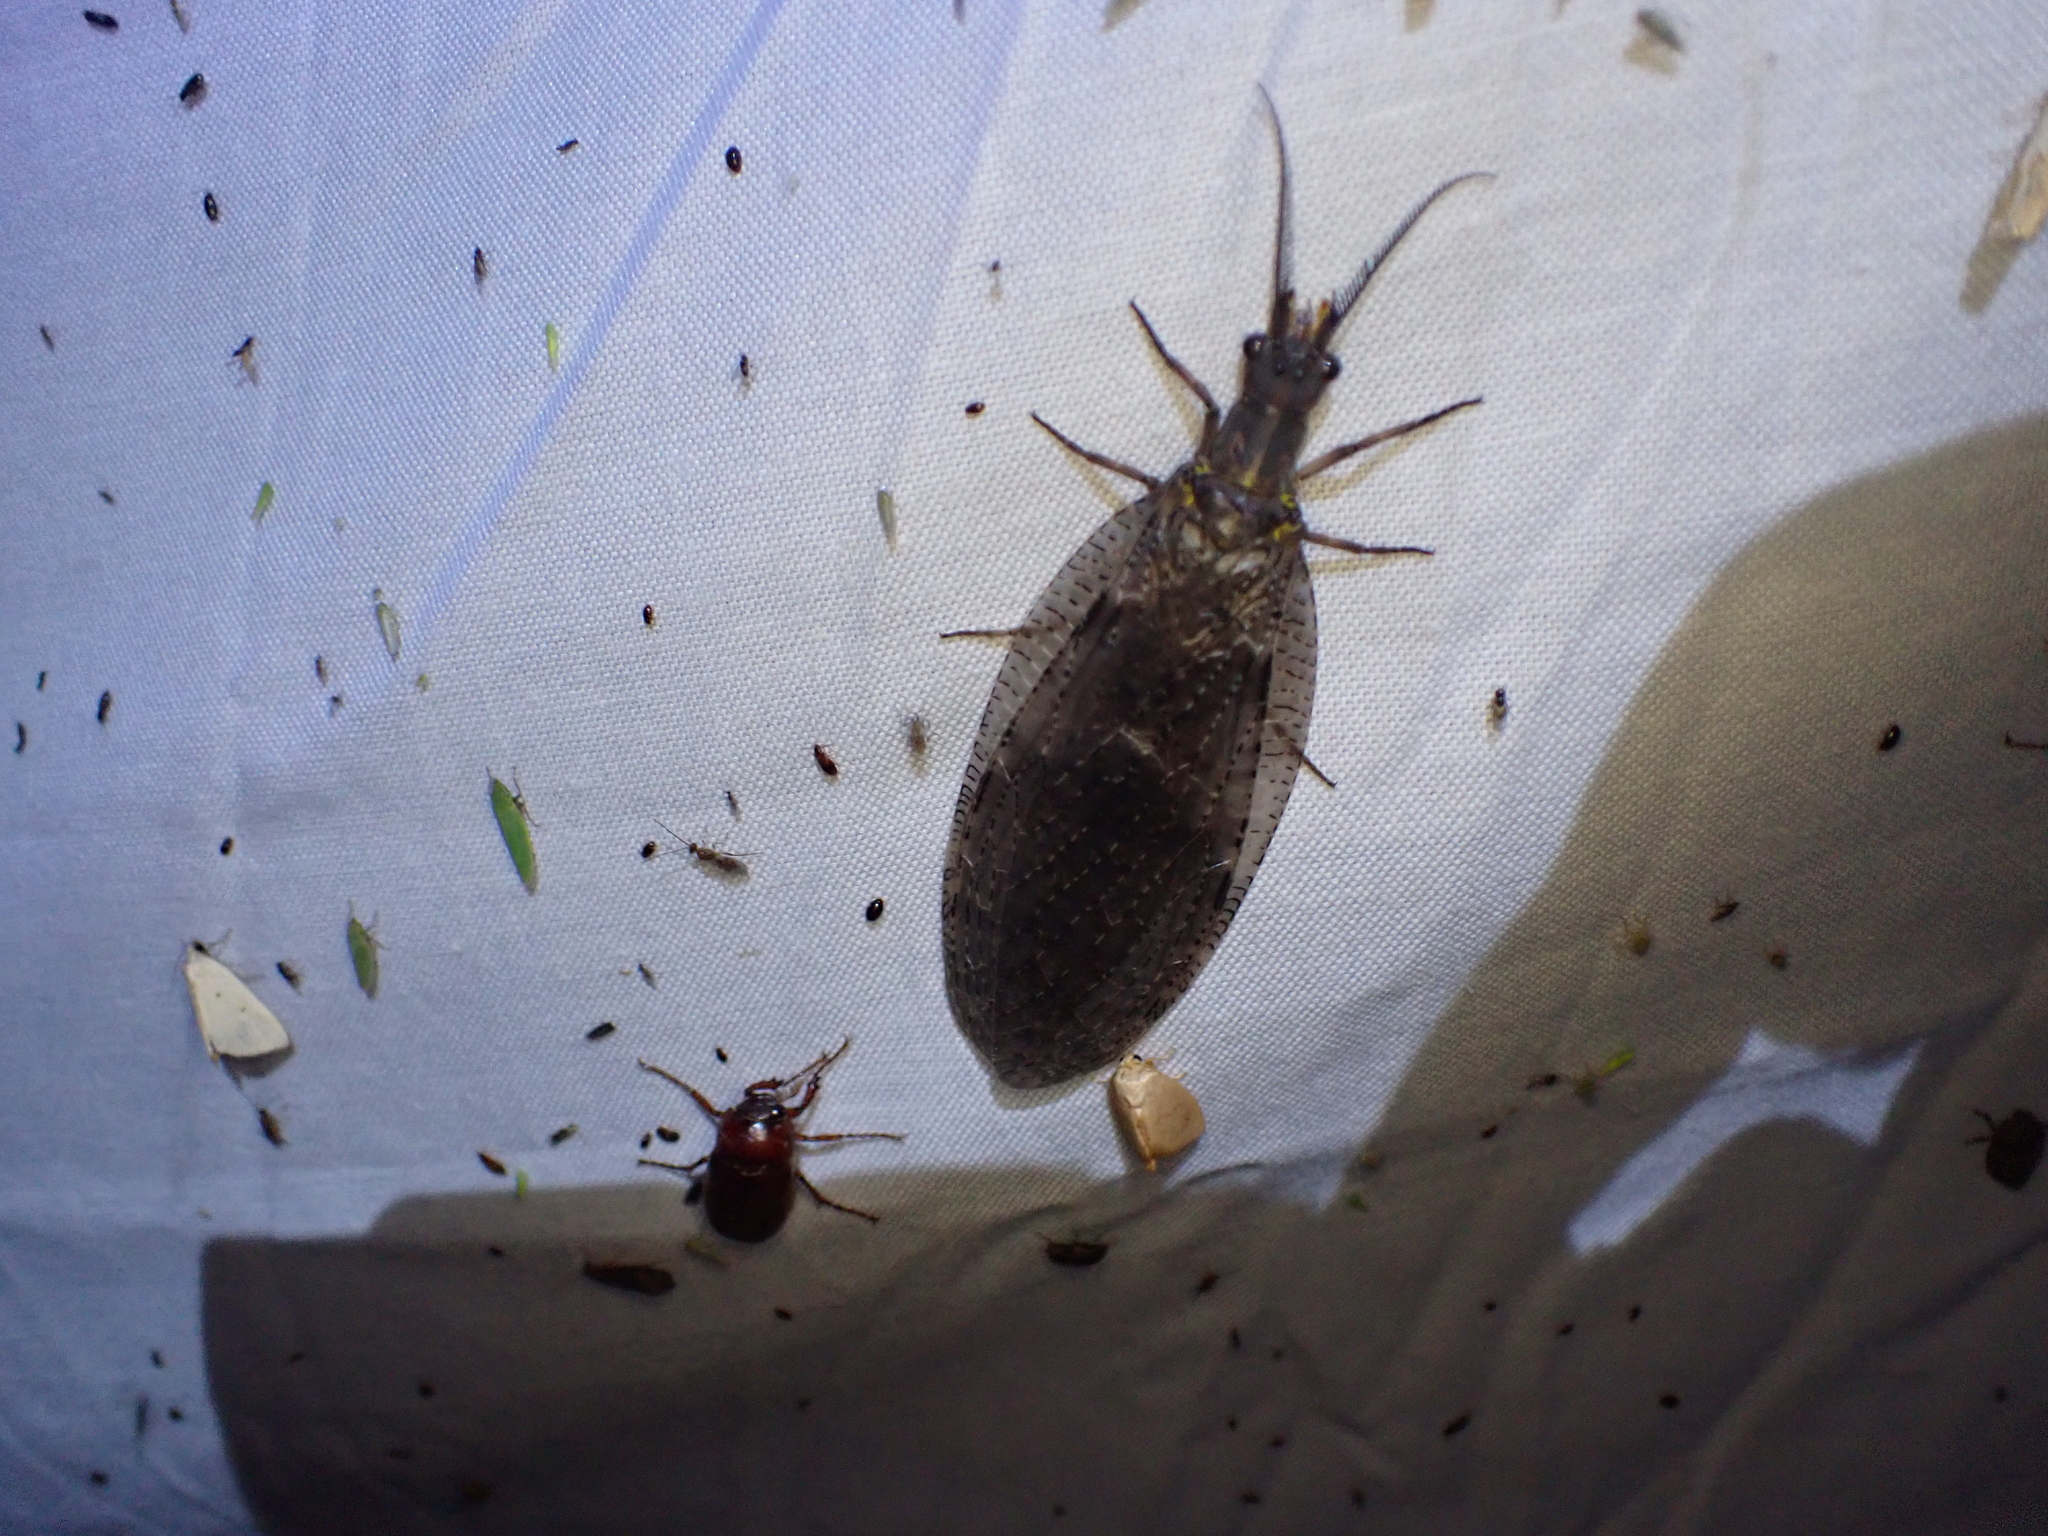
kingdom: Animalia
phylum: Arthropoda
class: Insecta
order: Megaloptera
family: Corydalidae
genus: Chauliodes
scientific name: Chauliodes pectinicornis
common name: Summer fishfly
